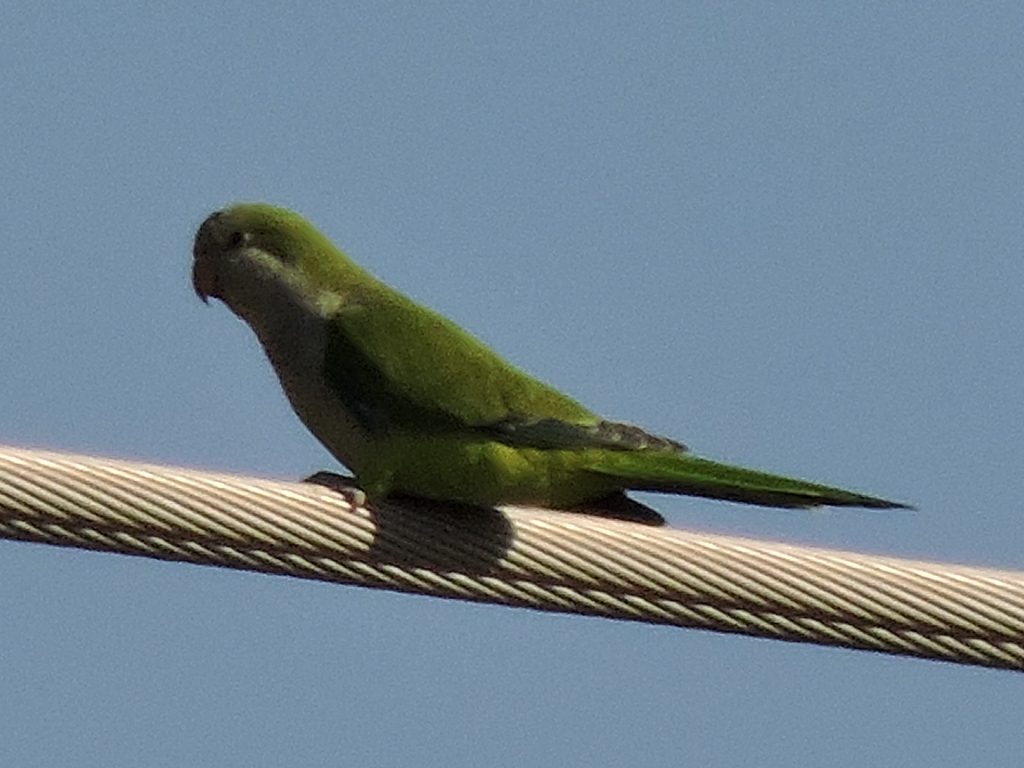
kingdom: Animalia
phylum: Chordata
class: Aves
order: Psittaciformes
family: Psittacidae
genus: Myiopsitta
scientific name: Myiopsitta monachus
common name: Monk parakeet
